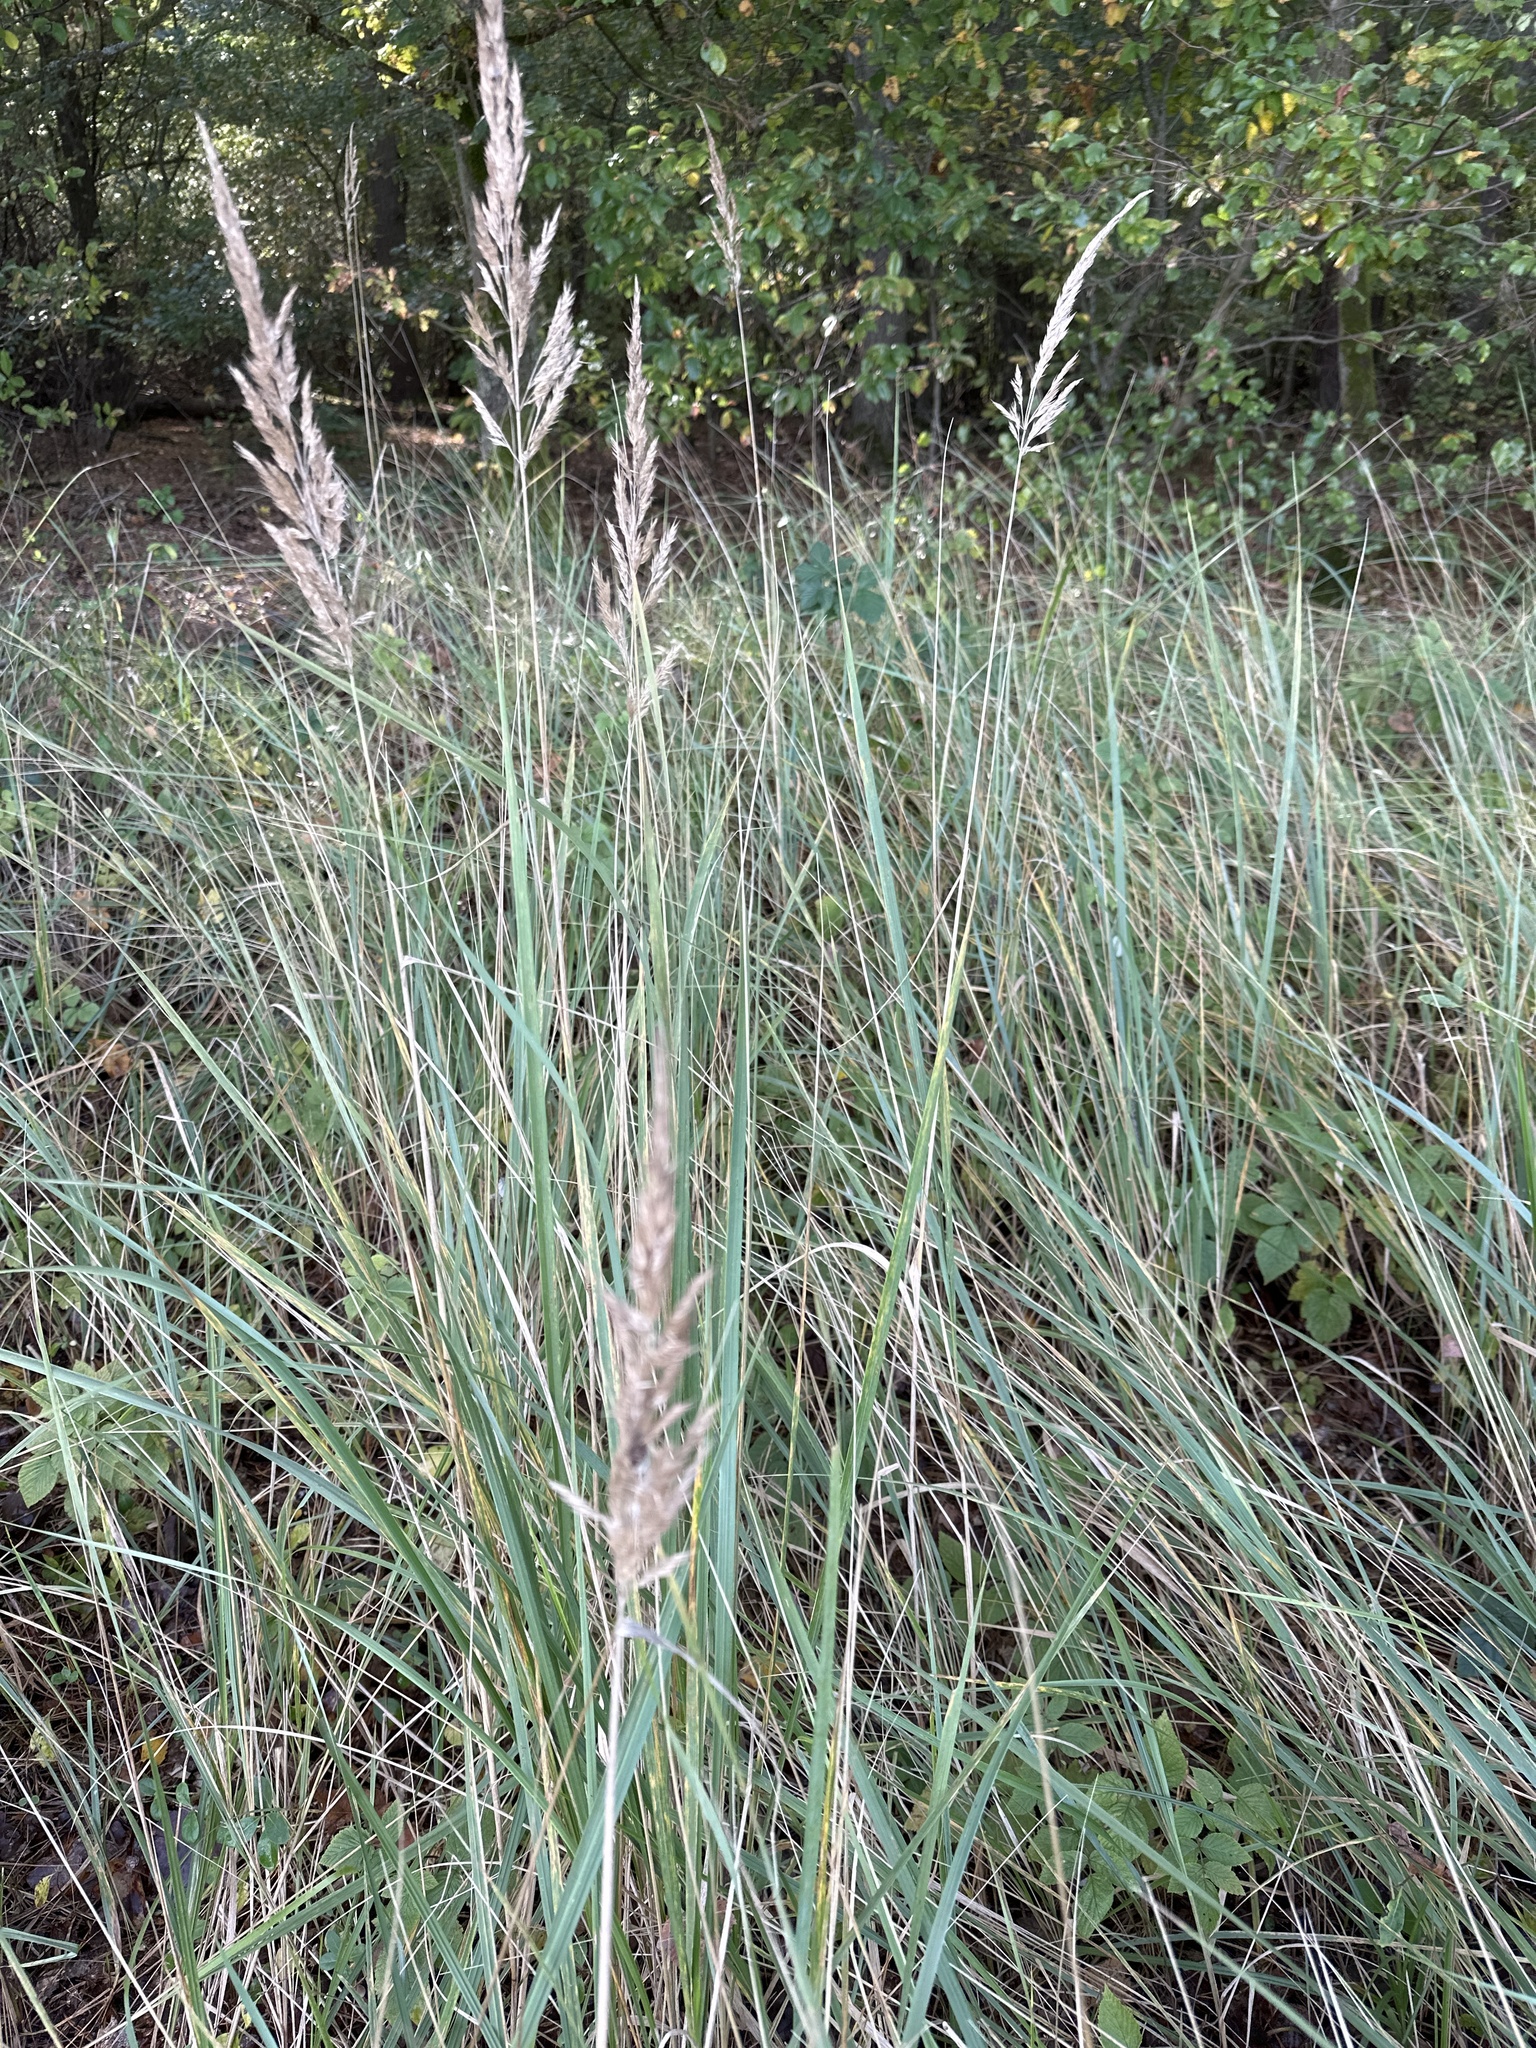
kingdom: Plantae
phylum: Tracheophyta
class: Liliopsida
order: Poales
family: Poaceae
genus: Calamagrostis
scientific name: Calamagrostis epigejos
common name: Wood small-reed
